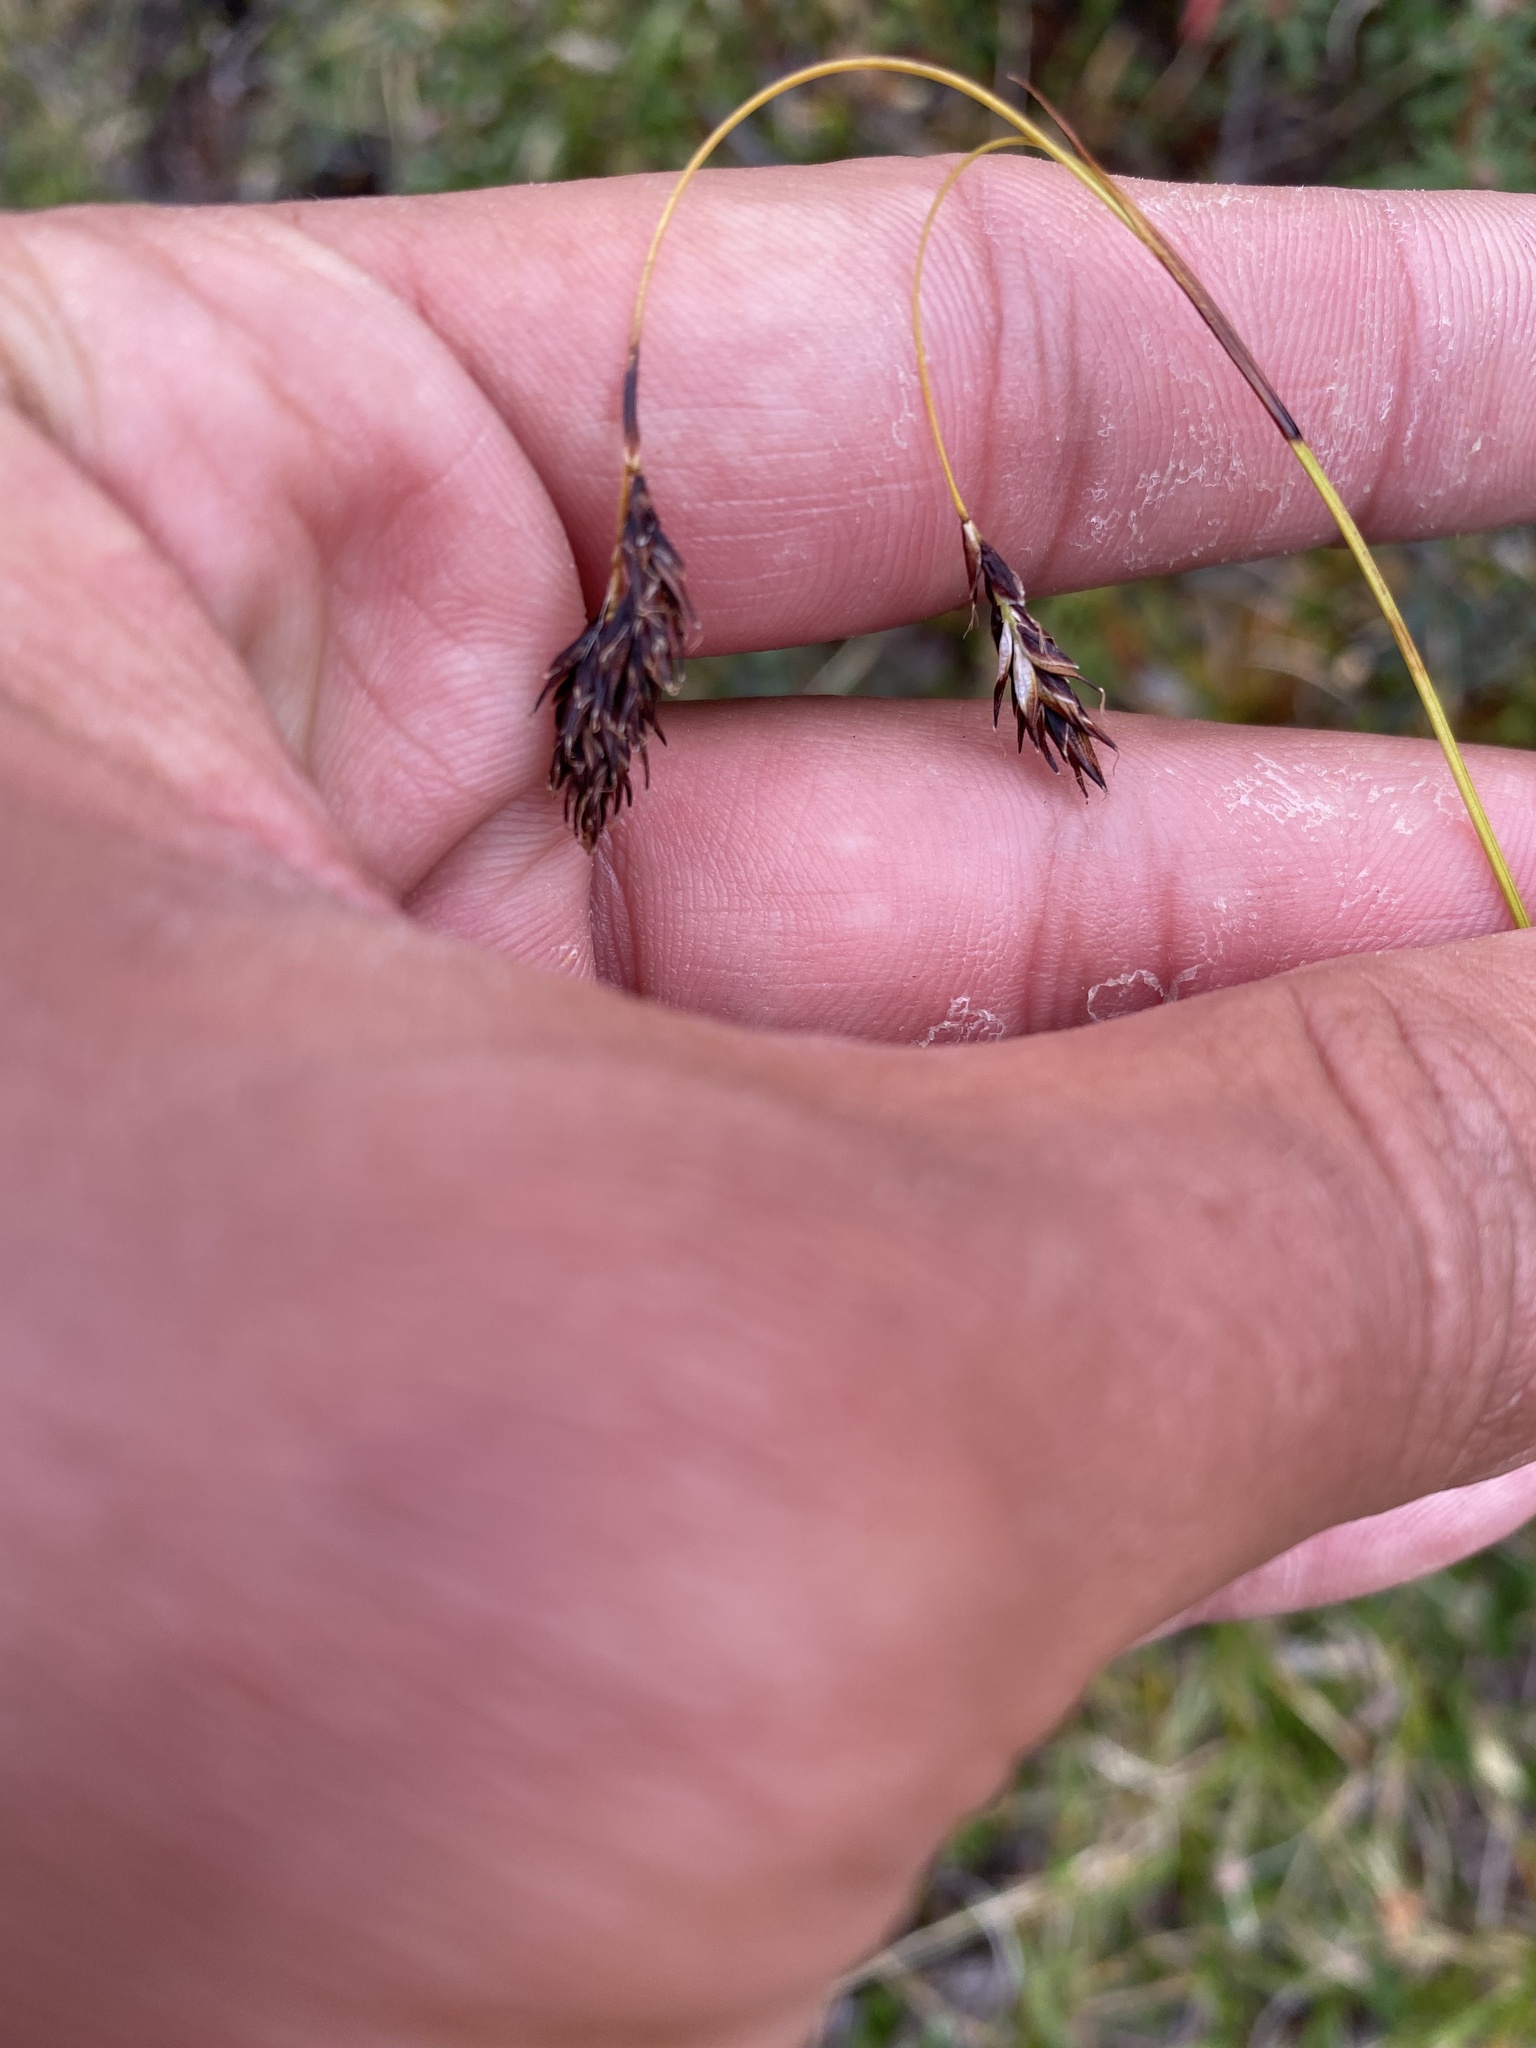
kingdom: Plantae
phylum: Tracheophyta
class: Liliopsida
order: Poales
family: Cyperaceae
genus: Carex
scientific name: Carex fuliginosa
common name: Few-flowered sedge
